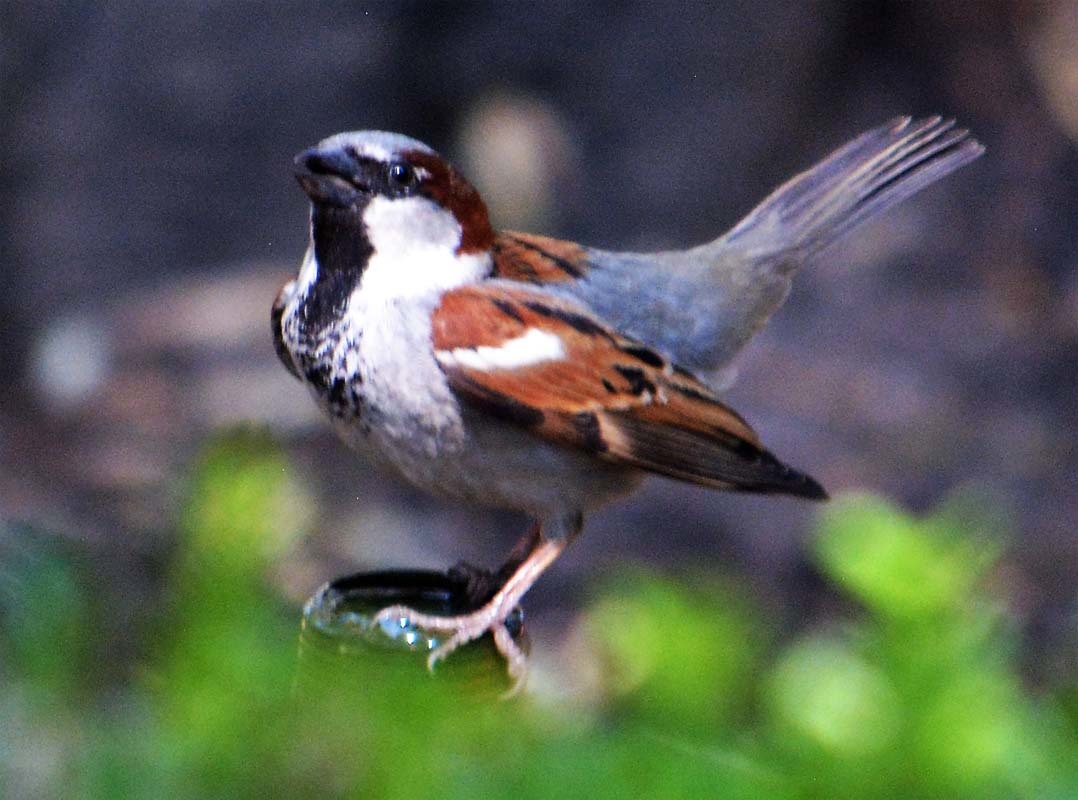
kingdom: Animalia
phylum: Chordata
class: Aves
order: Passeriformes
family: Passeridae
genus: Passer
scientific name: Passer domesticus
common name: House sparrow
